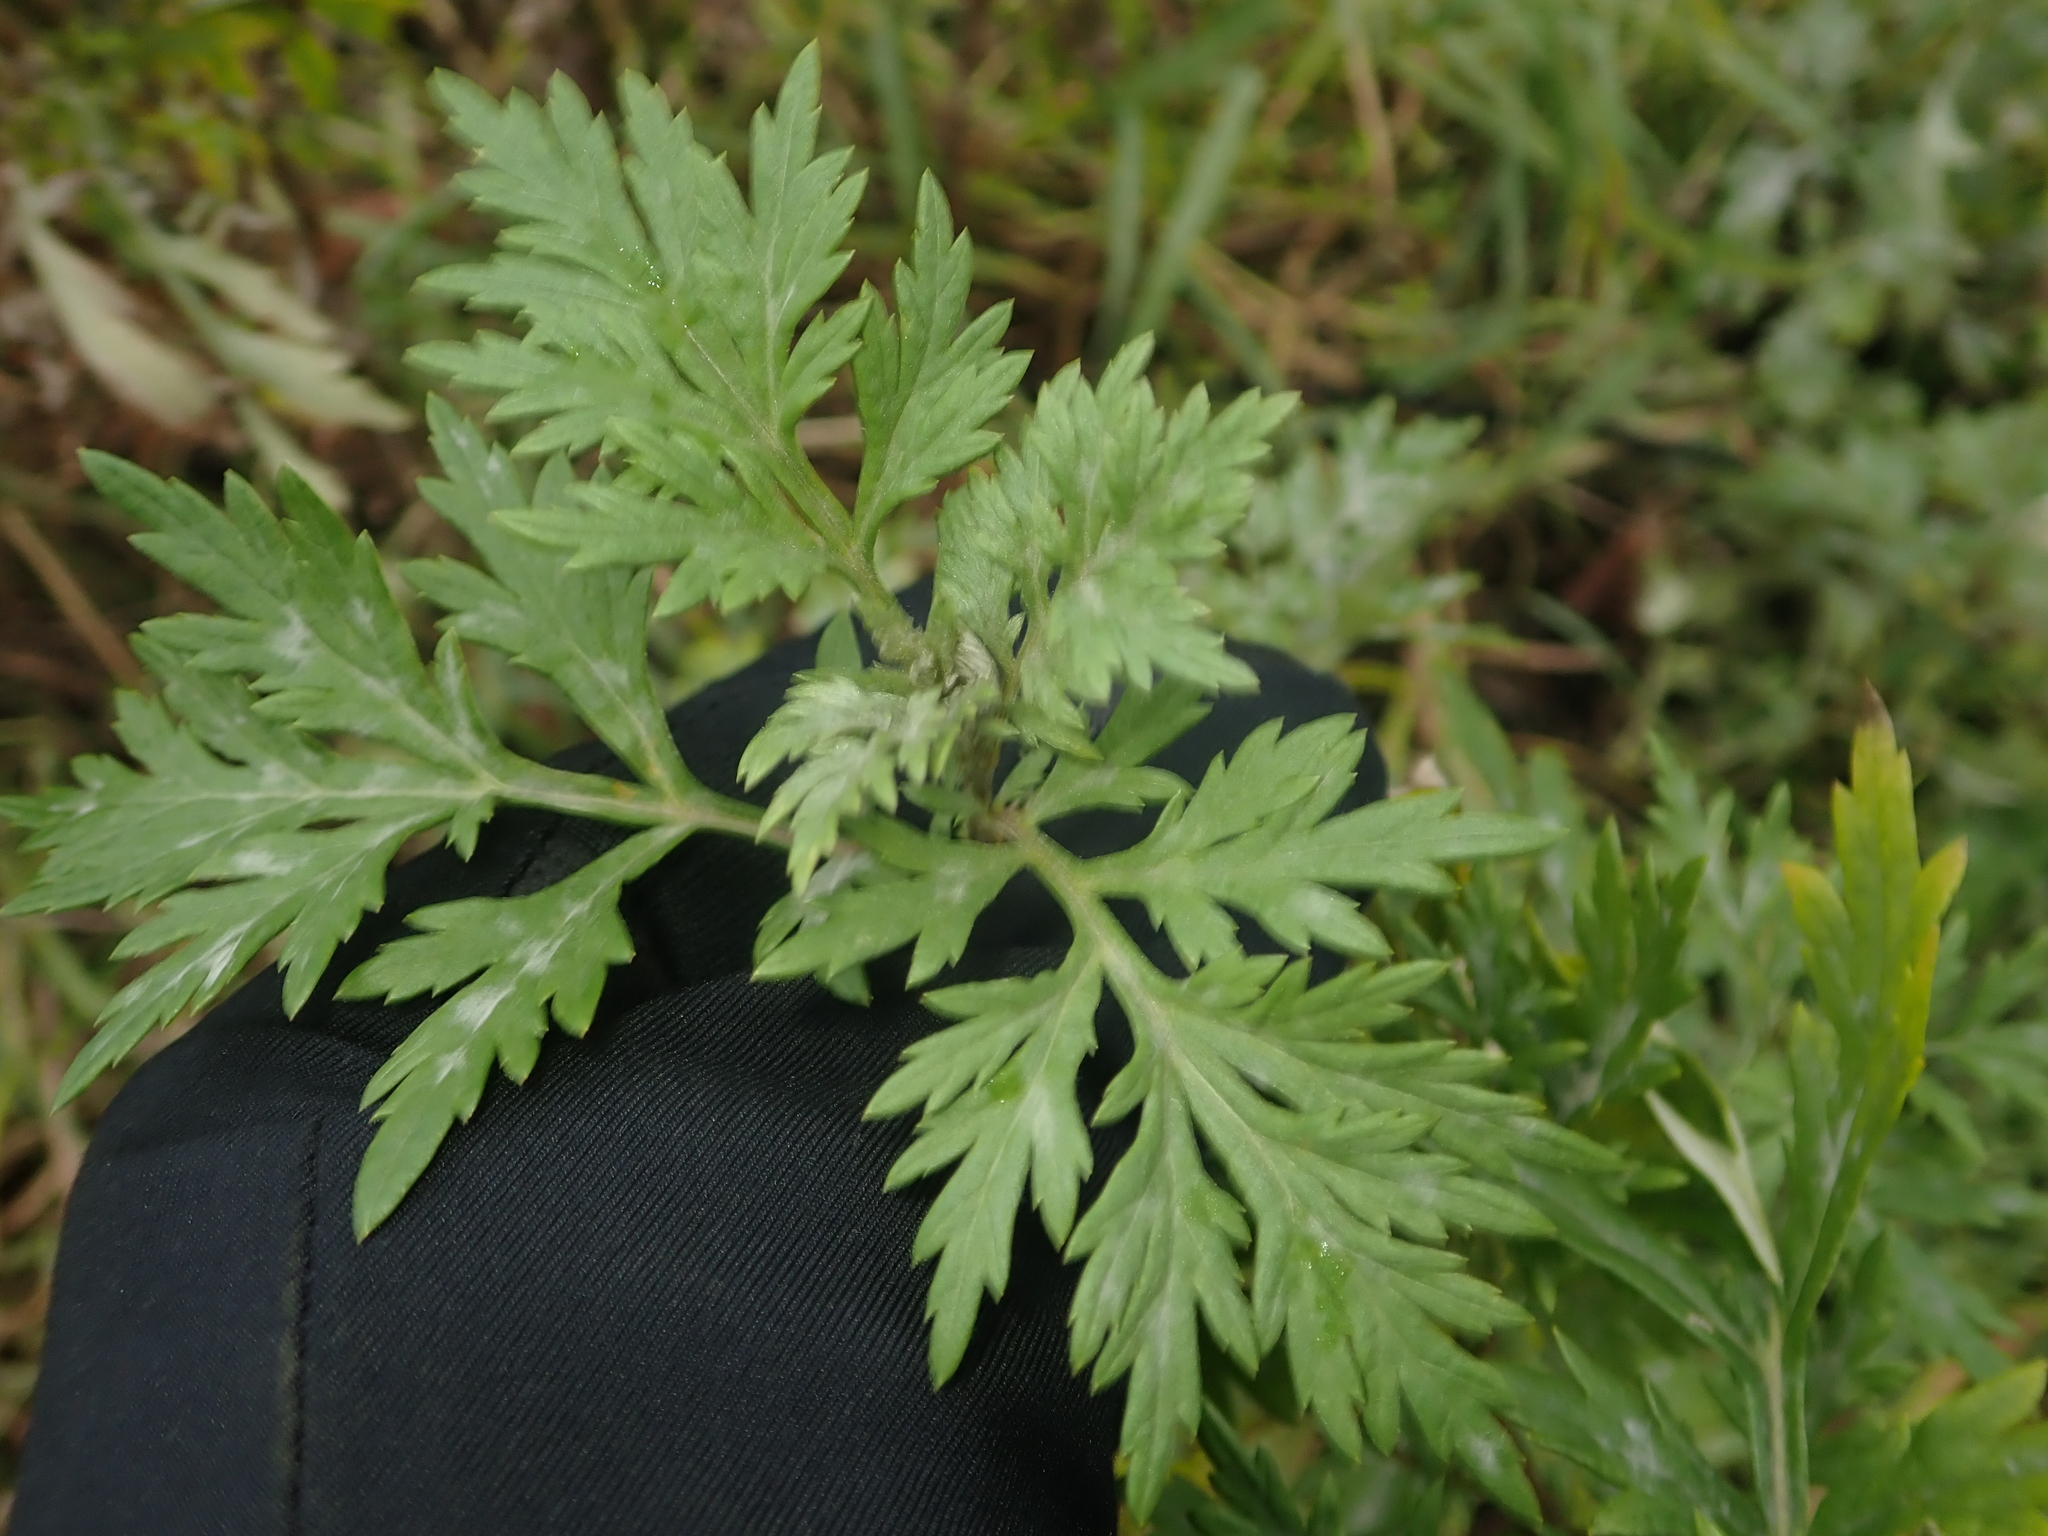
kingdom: Plantae
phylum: Tracheophyta
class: Magnoliopsida
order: Asterales
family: Asteraceae
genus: Artemisia
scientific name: Artemisia vulgaris
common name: Mugwort
